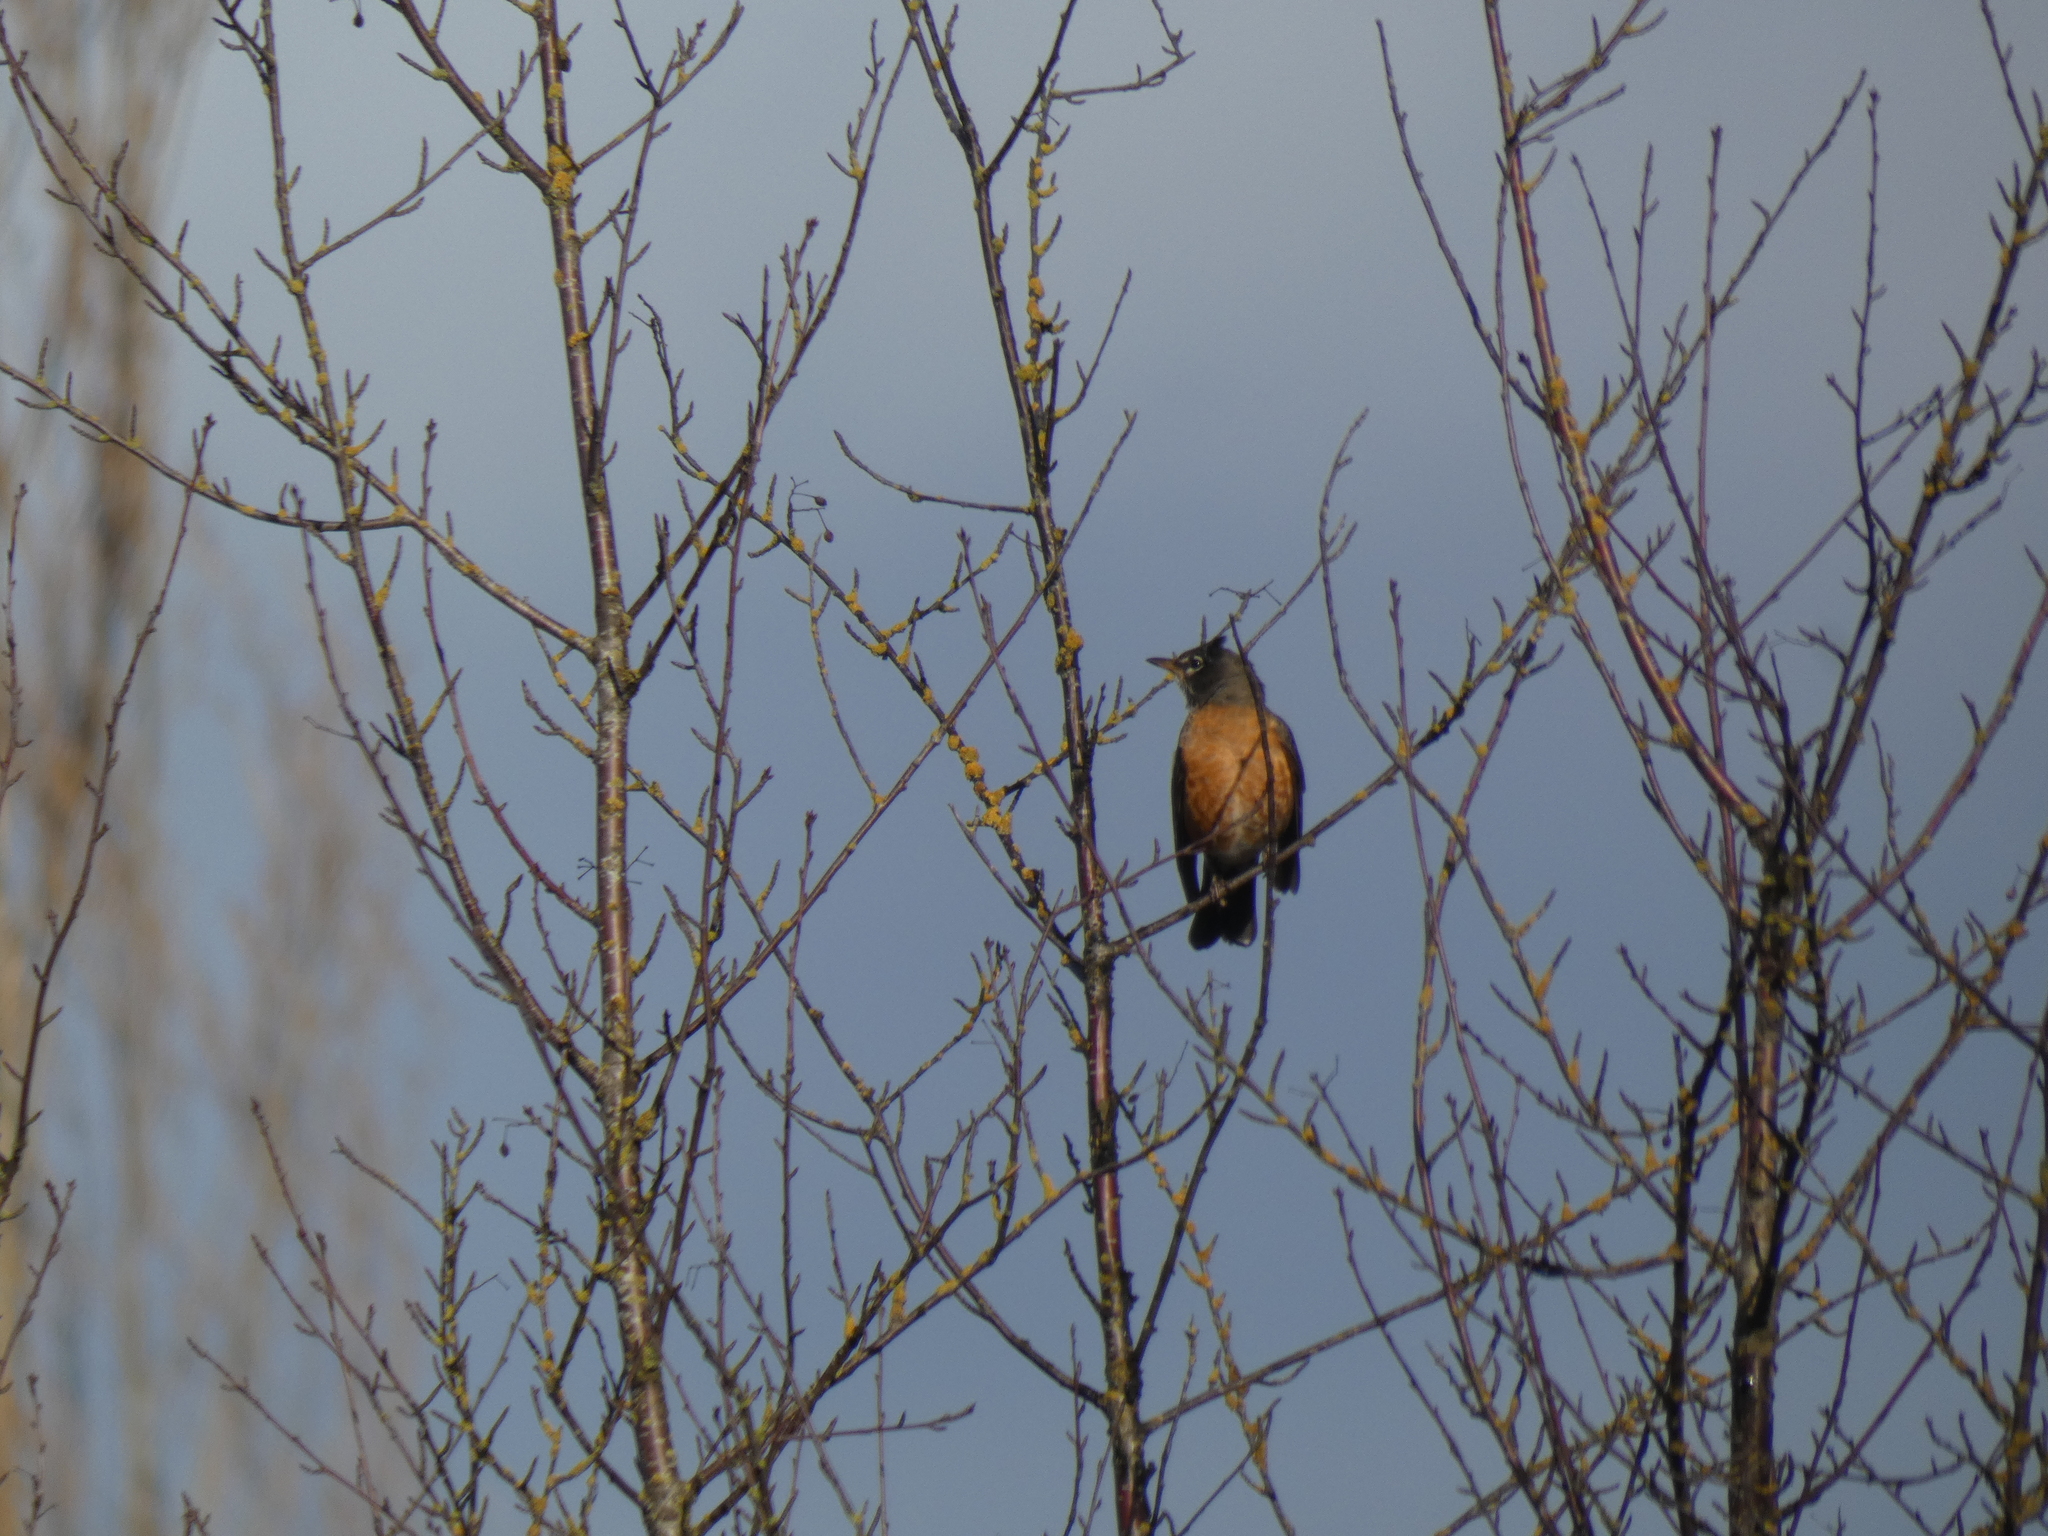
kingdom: Animalia
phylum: Chordata
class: Aves
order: Passeriformes
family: Turdidae
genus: Turdus
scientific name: Turdus migratorius
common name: American robin
